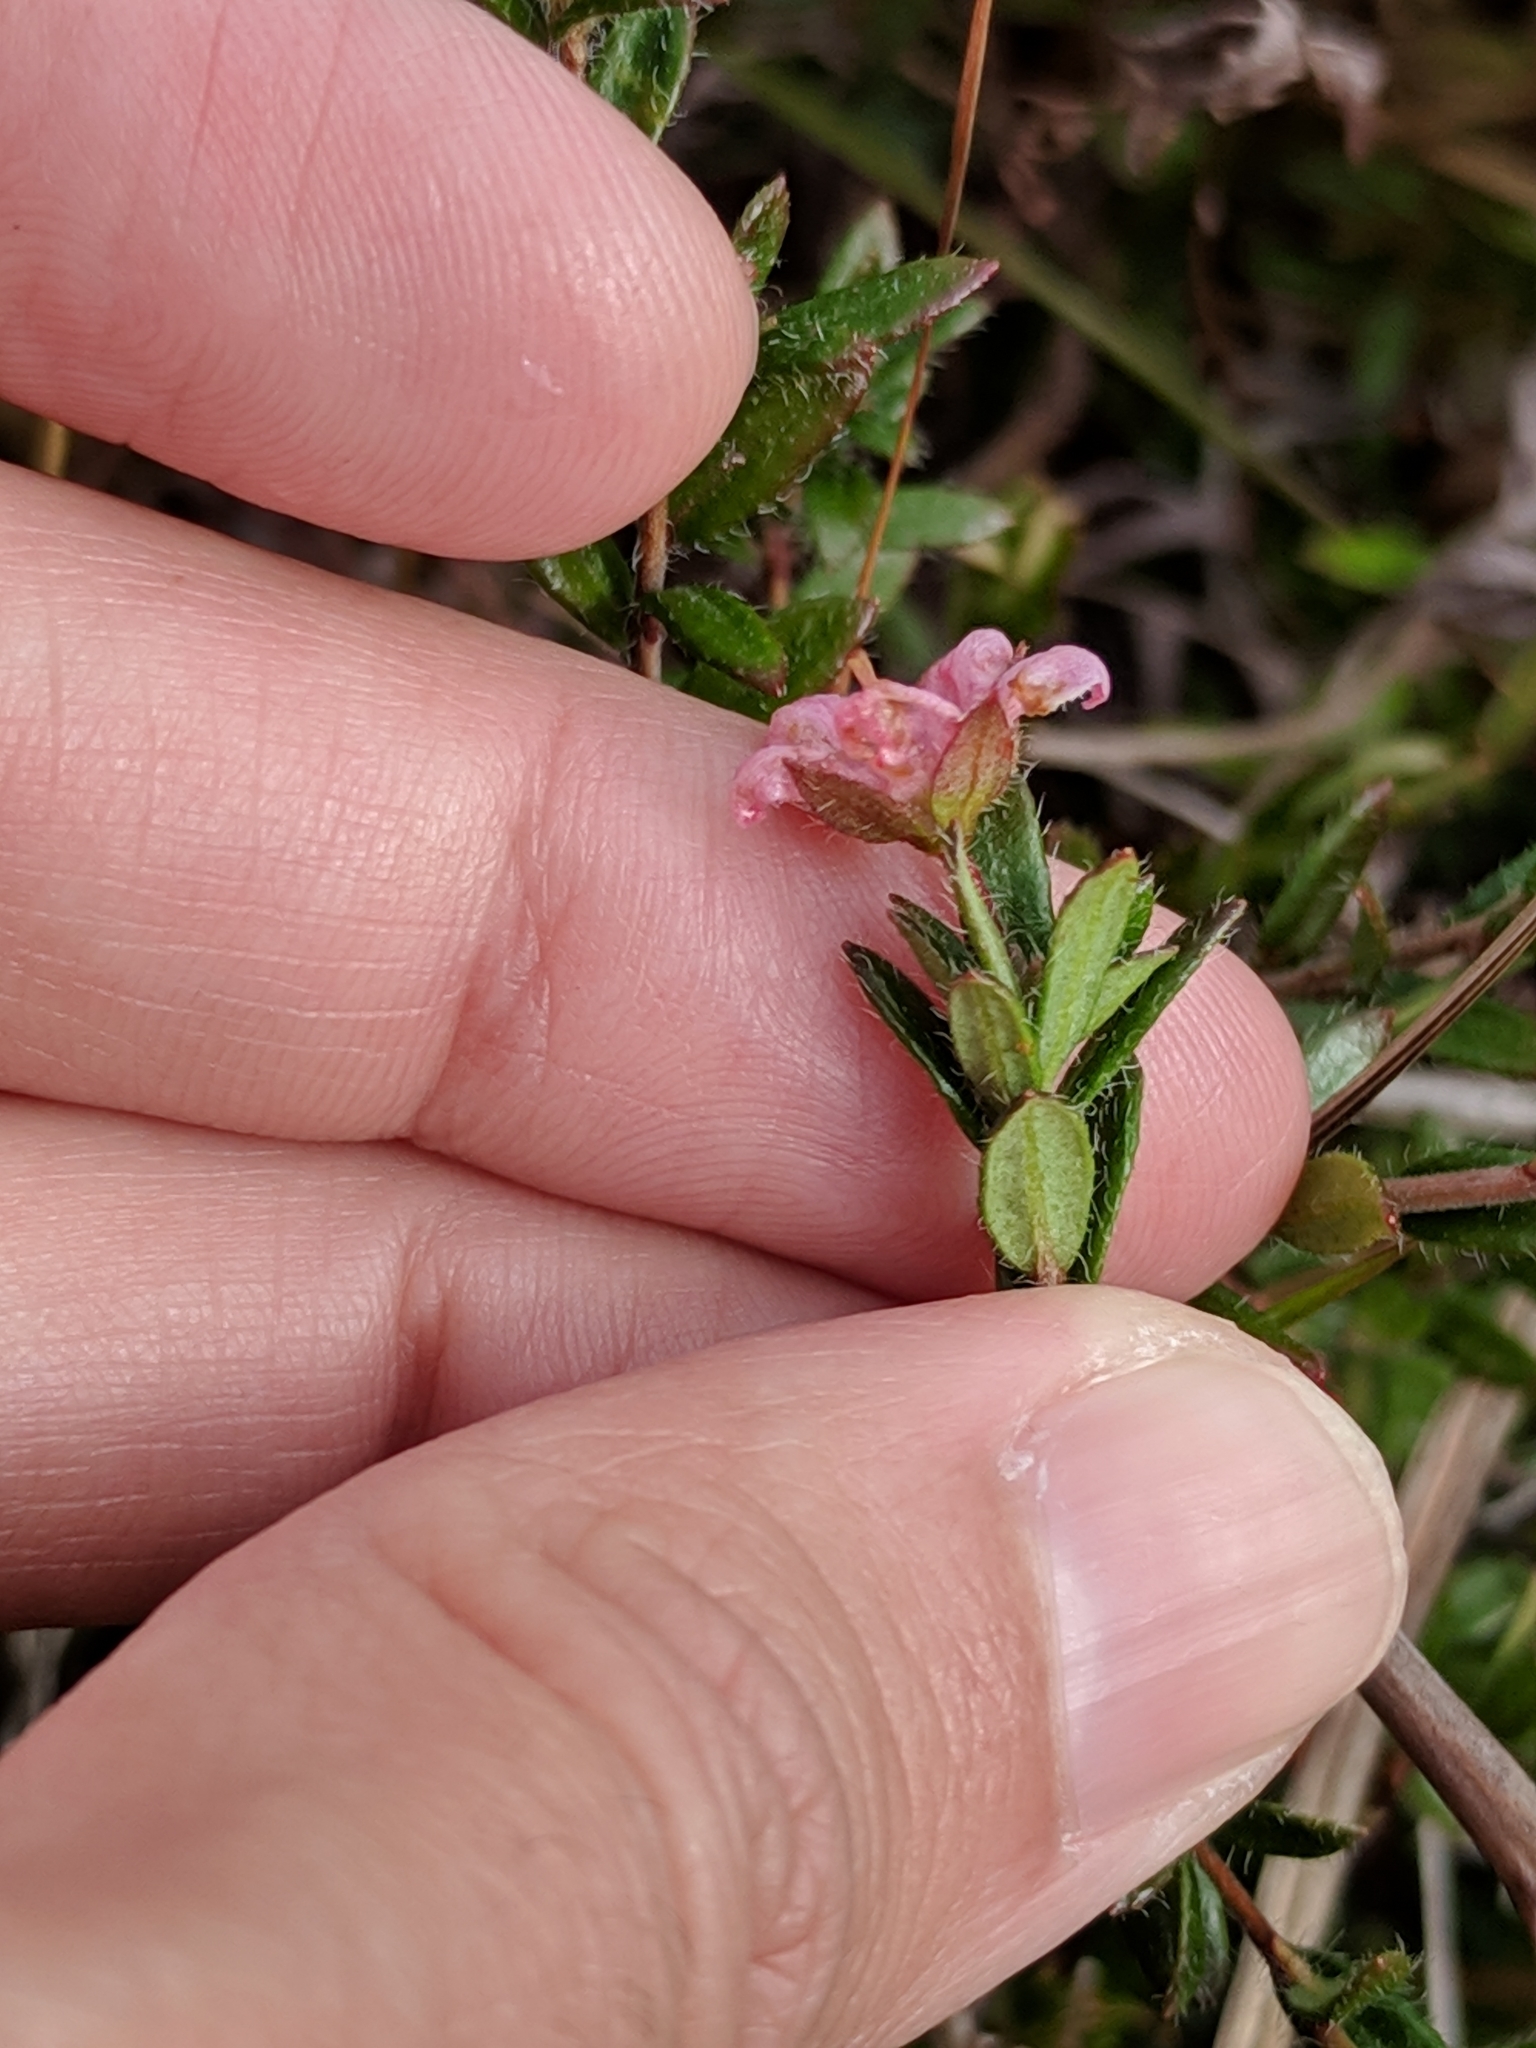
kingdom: Plantae
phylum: Tracheophyta
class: Magnoliopsida
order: Ericales
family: Ericaceae
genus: Kalmia
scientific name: Kalmia hirsuta
